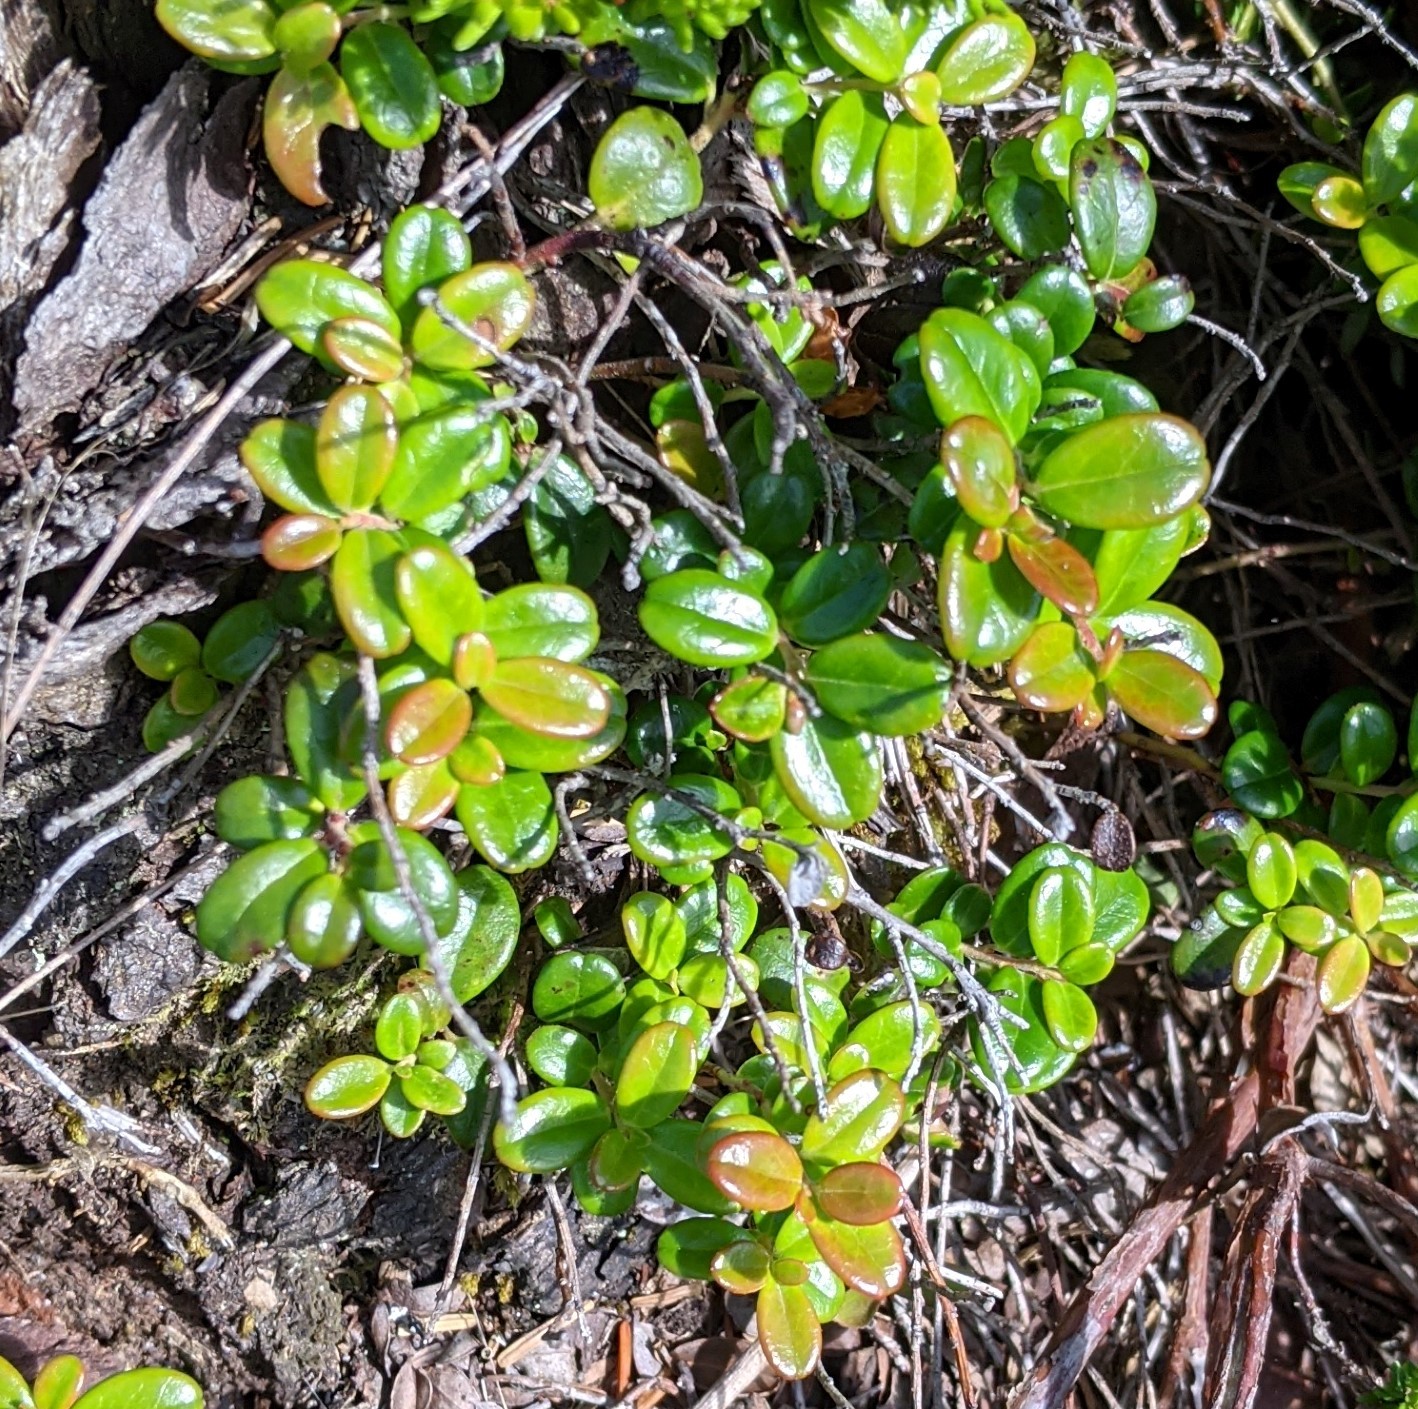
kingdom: Plantae
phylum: Tracheophyta
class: Magnoliopsida
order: Ericales
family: Ericaceae
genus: Vaccinium
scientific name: Vaccinium vitis-idaea
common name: Cowberry
